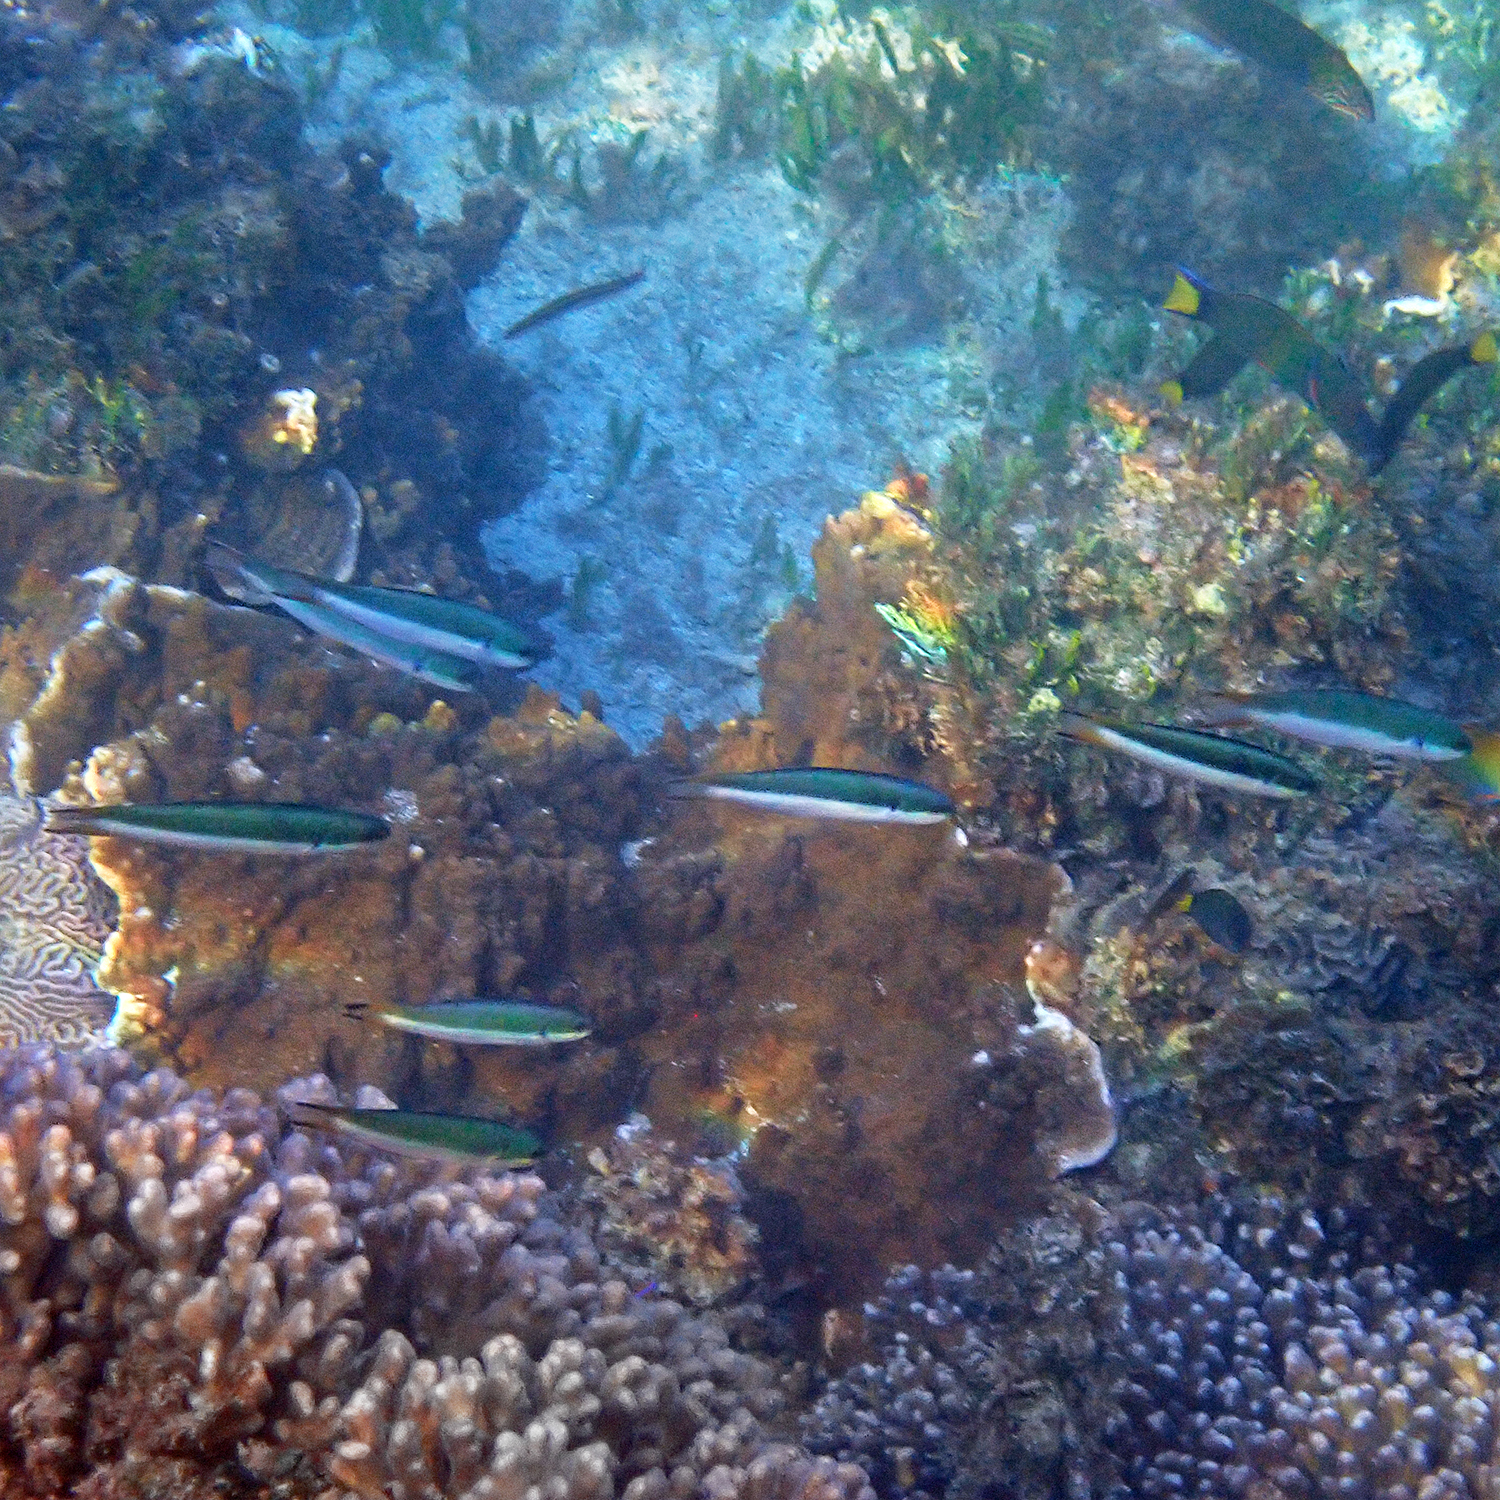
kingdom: Animalia
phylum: Chordata
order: Perciformes
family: Labridae
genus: Thalassoma
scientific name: Thalassoma amblycephalum
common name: Bluehead wrasse
